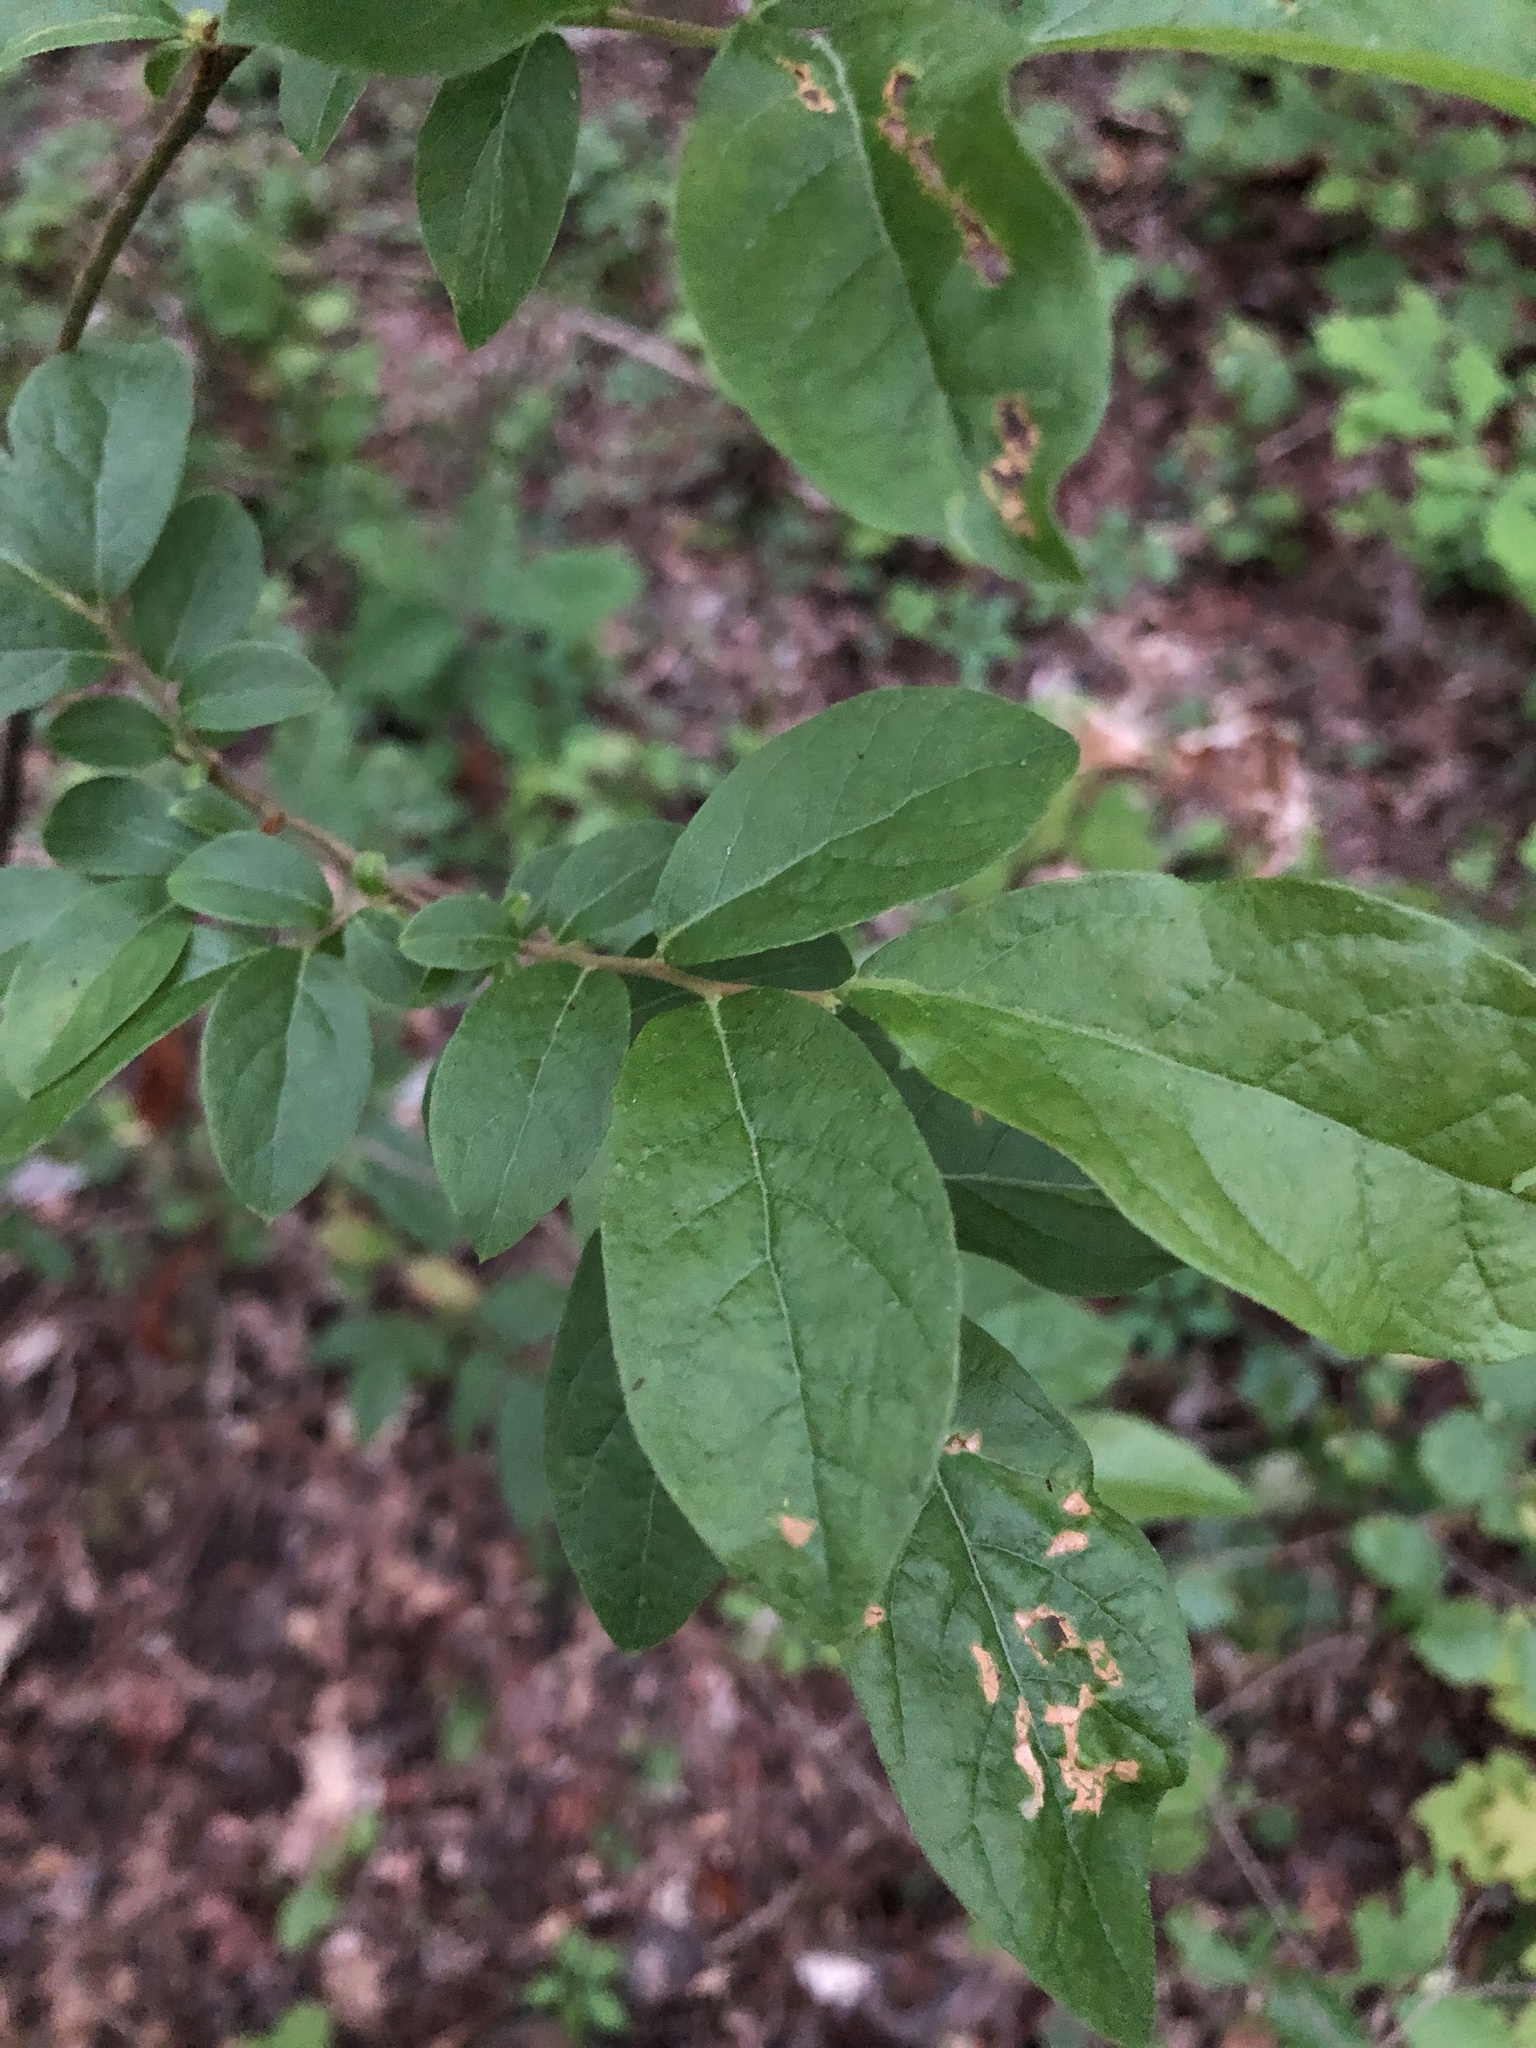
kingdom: Plantae
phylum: Tracheophyta
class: Magnoliopsida
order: Ericales
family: Ericaceae
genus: Vaccinium
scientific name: Vaccinium stamineum
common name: Deerberry
